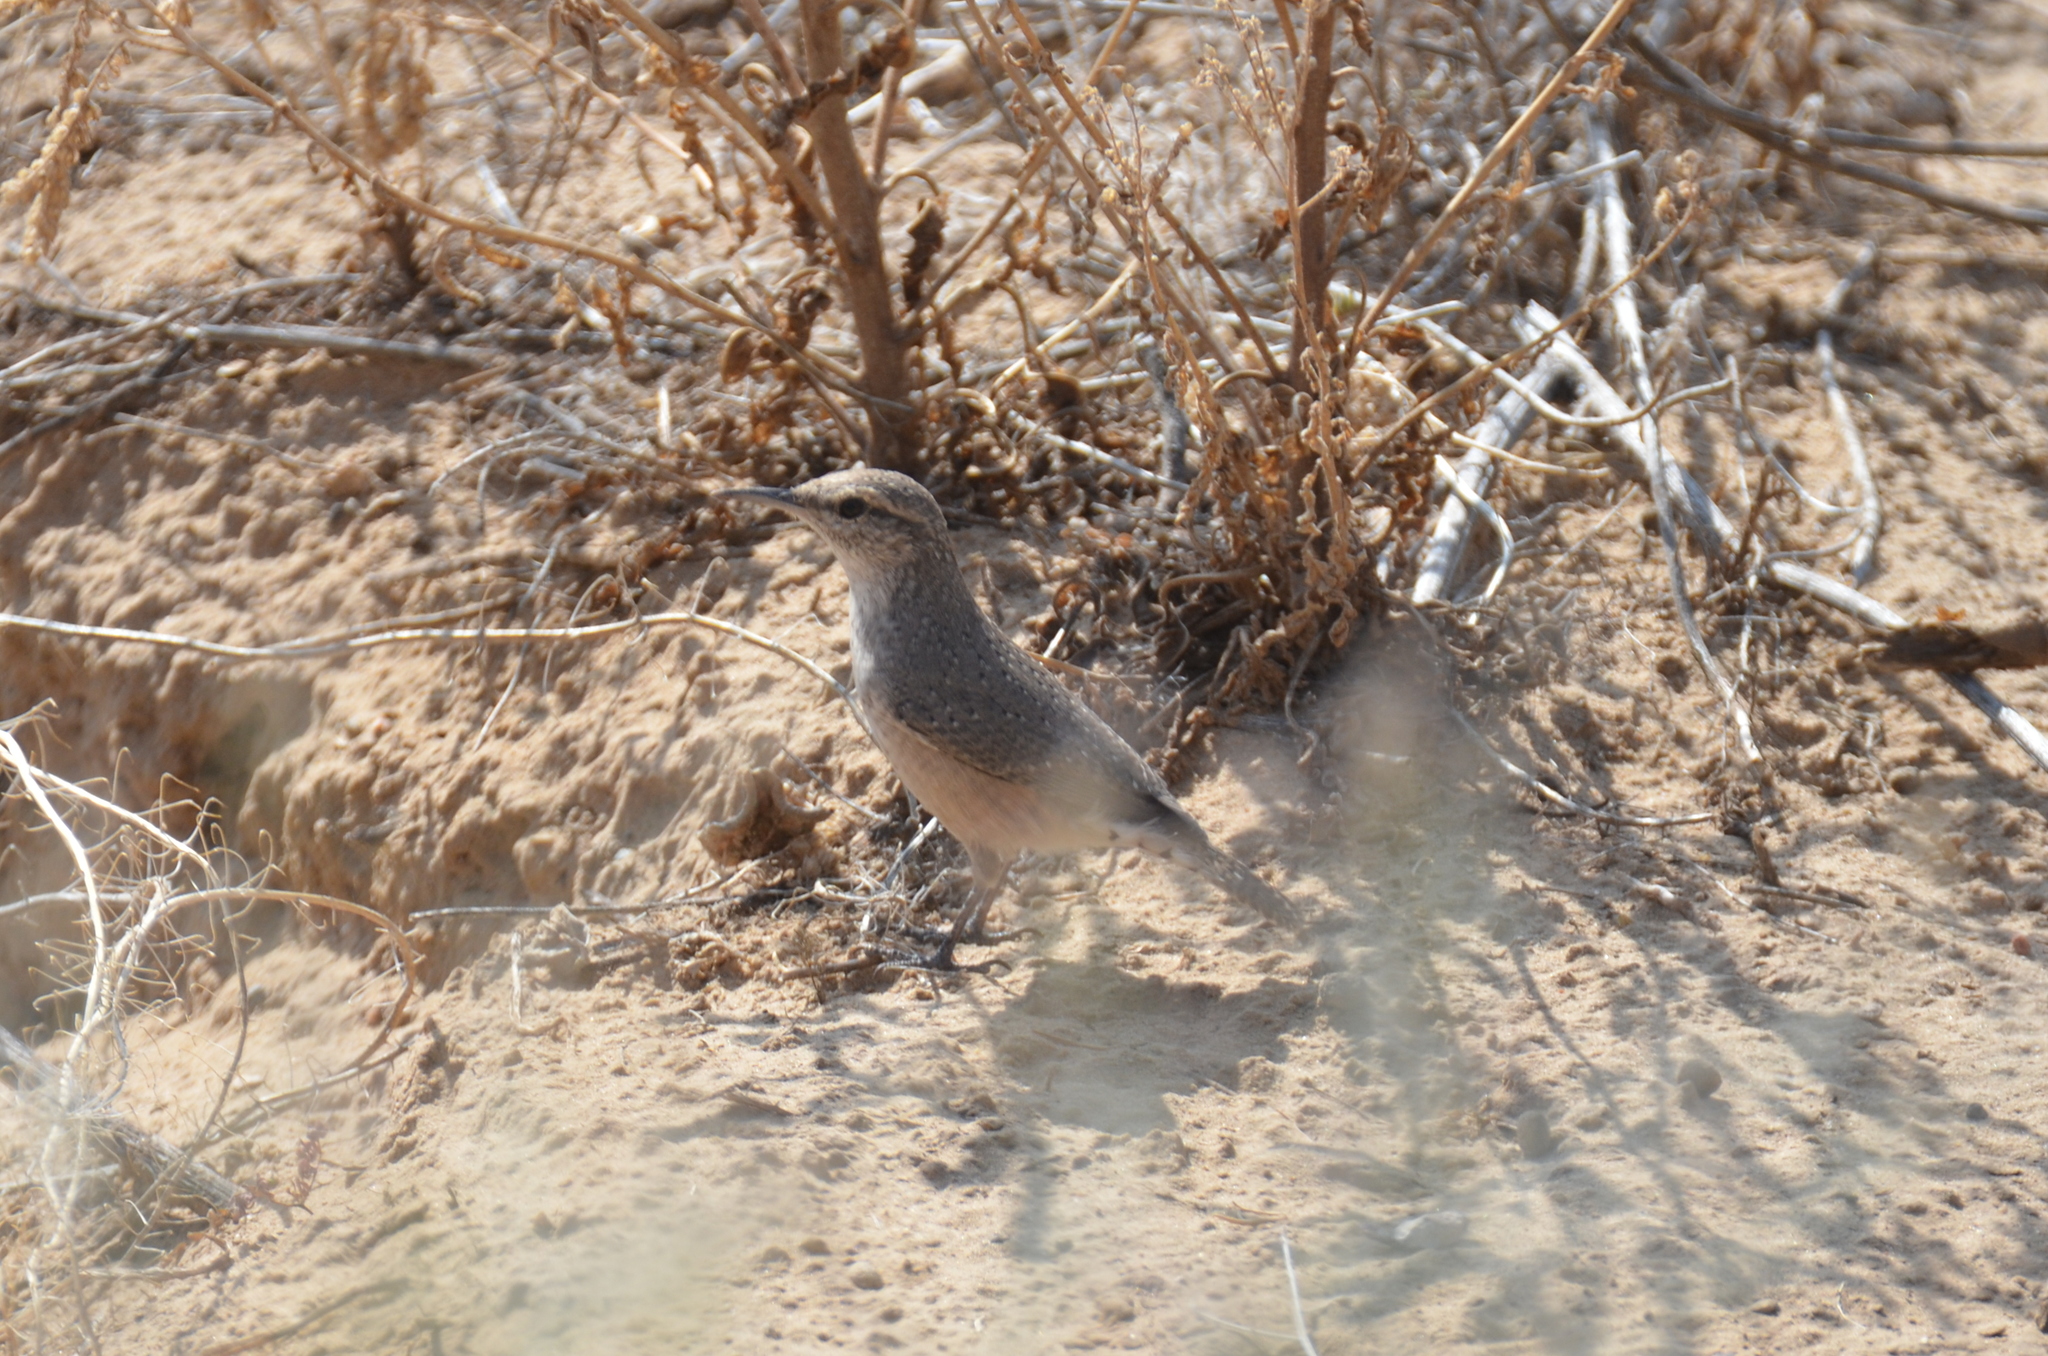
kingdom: Animalia
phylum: Chordata
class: Aves
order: Passeriformes
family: Troglodytidae
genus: Salpinctes
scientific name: Salpinctes obsoletus
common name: Rock wren
